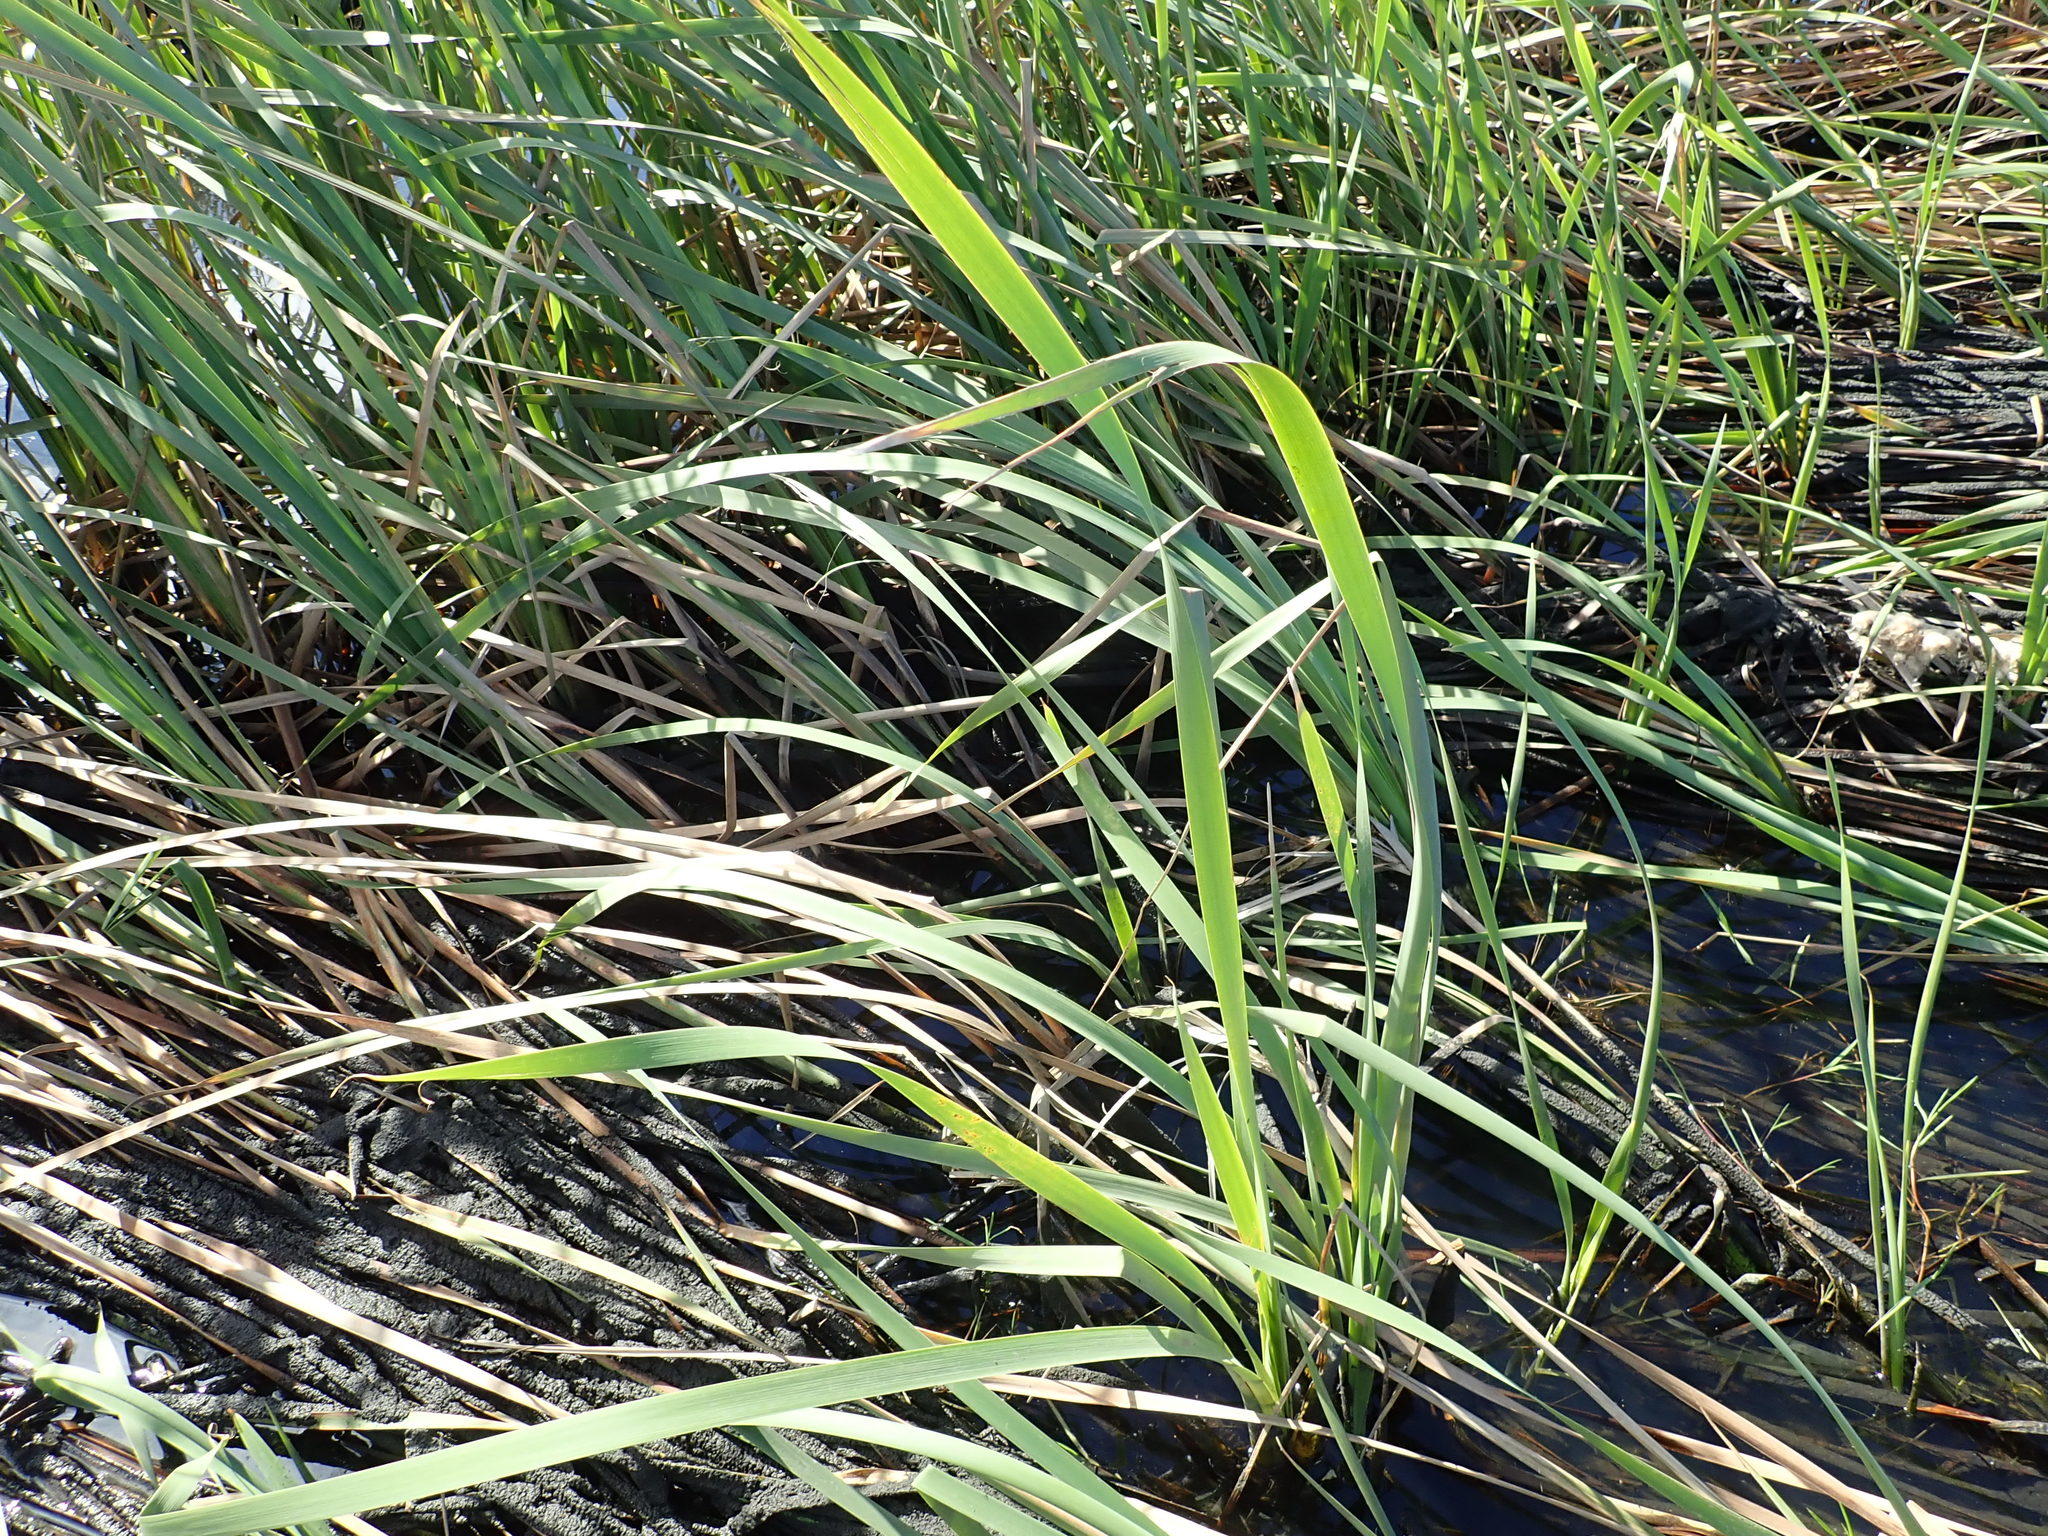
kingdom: Plantae
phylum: Tracheophyta
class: Liliopsida
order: Poales
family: Typhaceae
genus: Typha
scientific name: Typha orientalis
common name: Bullrush
